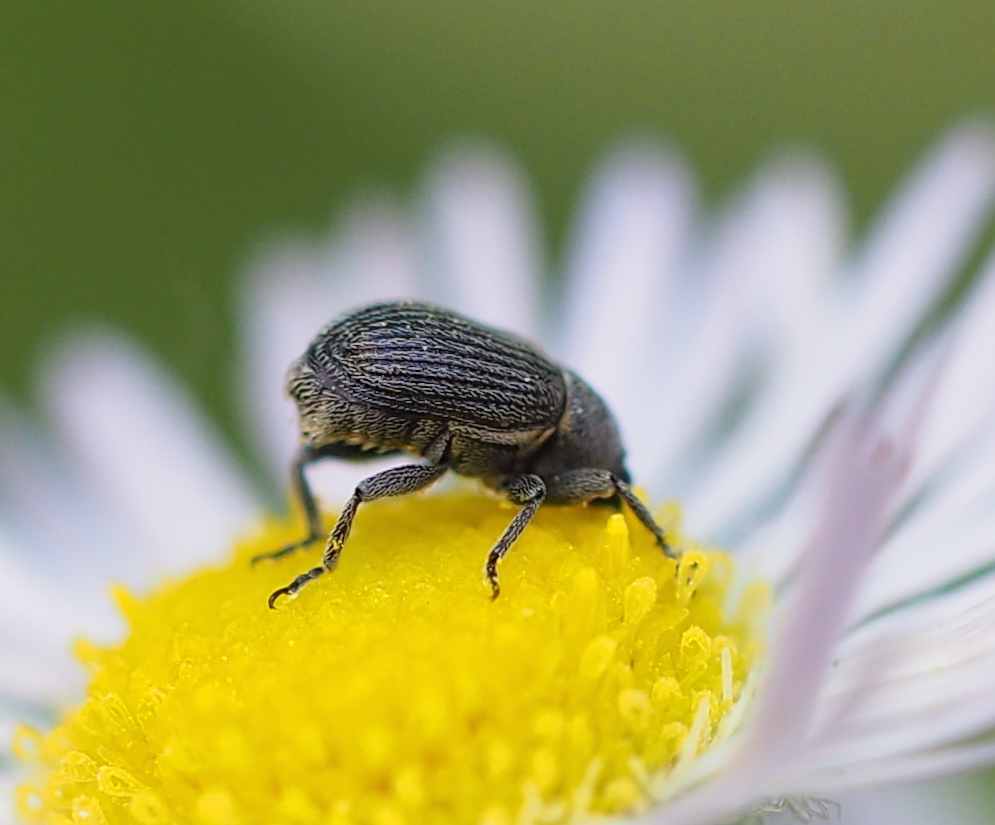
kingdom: Animalia
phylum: Arthropoda
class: Insecta
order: Coleoptera
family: Curculionidae
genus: Miarus
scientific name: Miarus
